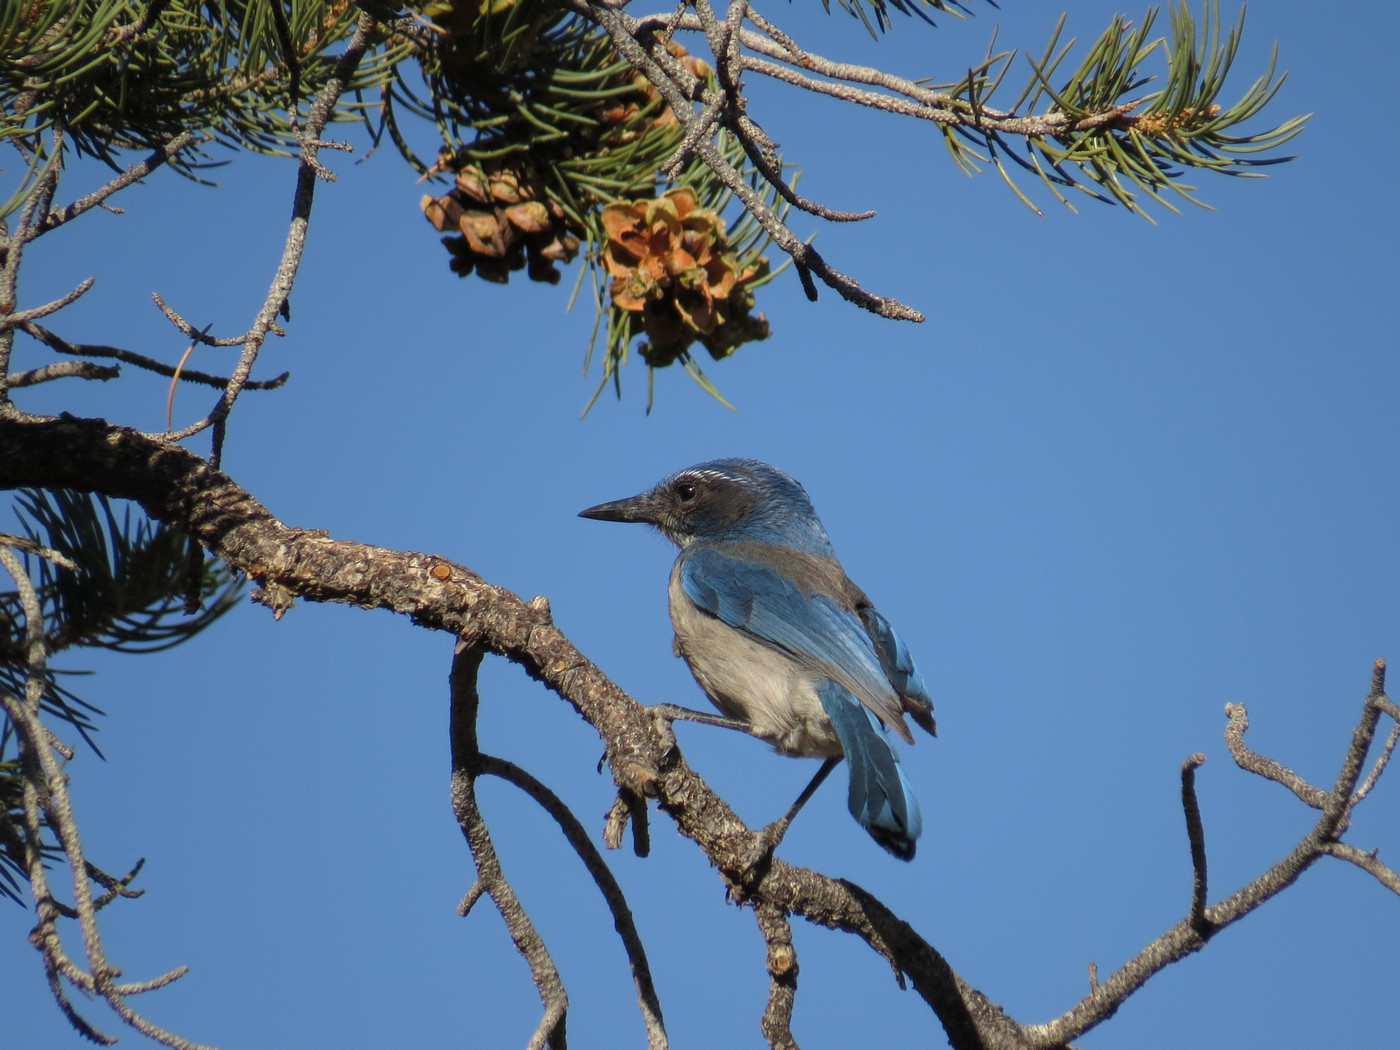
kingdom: Animalia
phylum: Chordata
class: Aves
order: Passeriformes
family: Corvidae
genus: Aphelocoma
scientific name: Aphelocoma californica
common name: California scrub-jay
